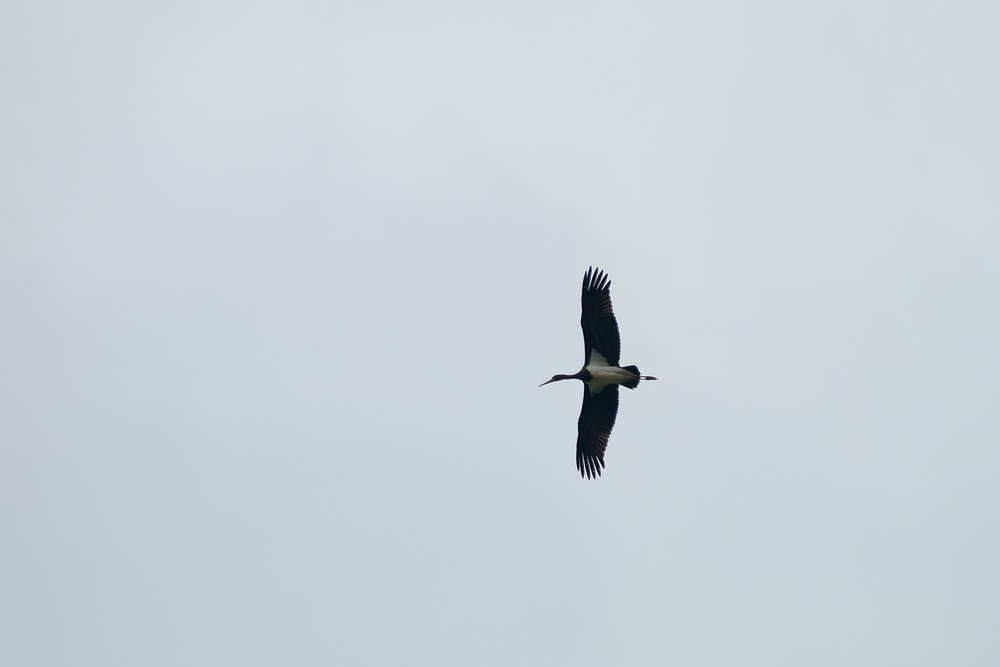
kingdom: Animalia
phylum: Chordata
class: Aves
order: Ciconiiformes
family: Ciconiidae
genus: Ciconia
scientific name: Ciconia nigra
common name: Black stork
